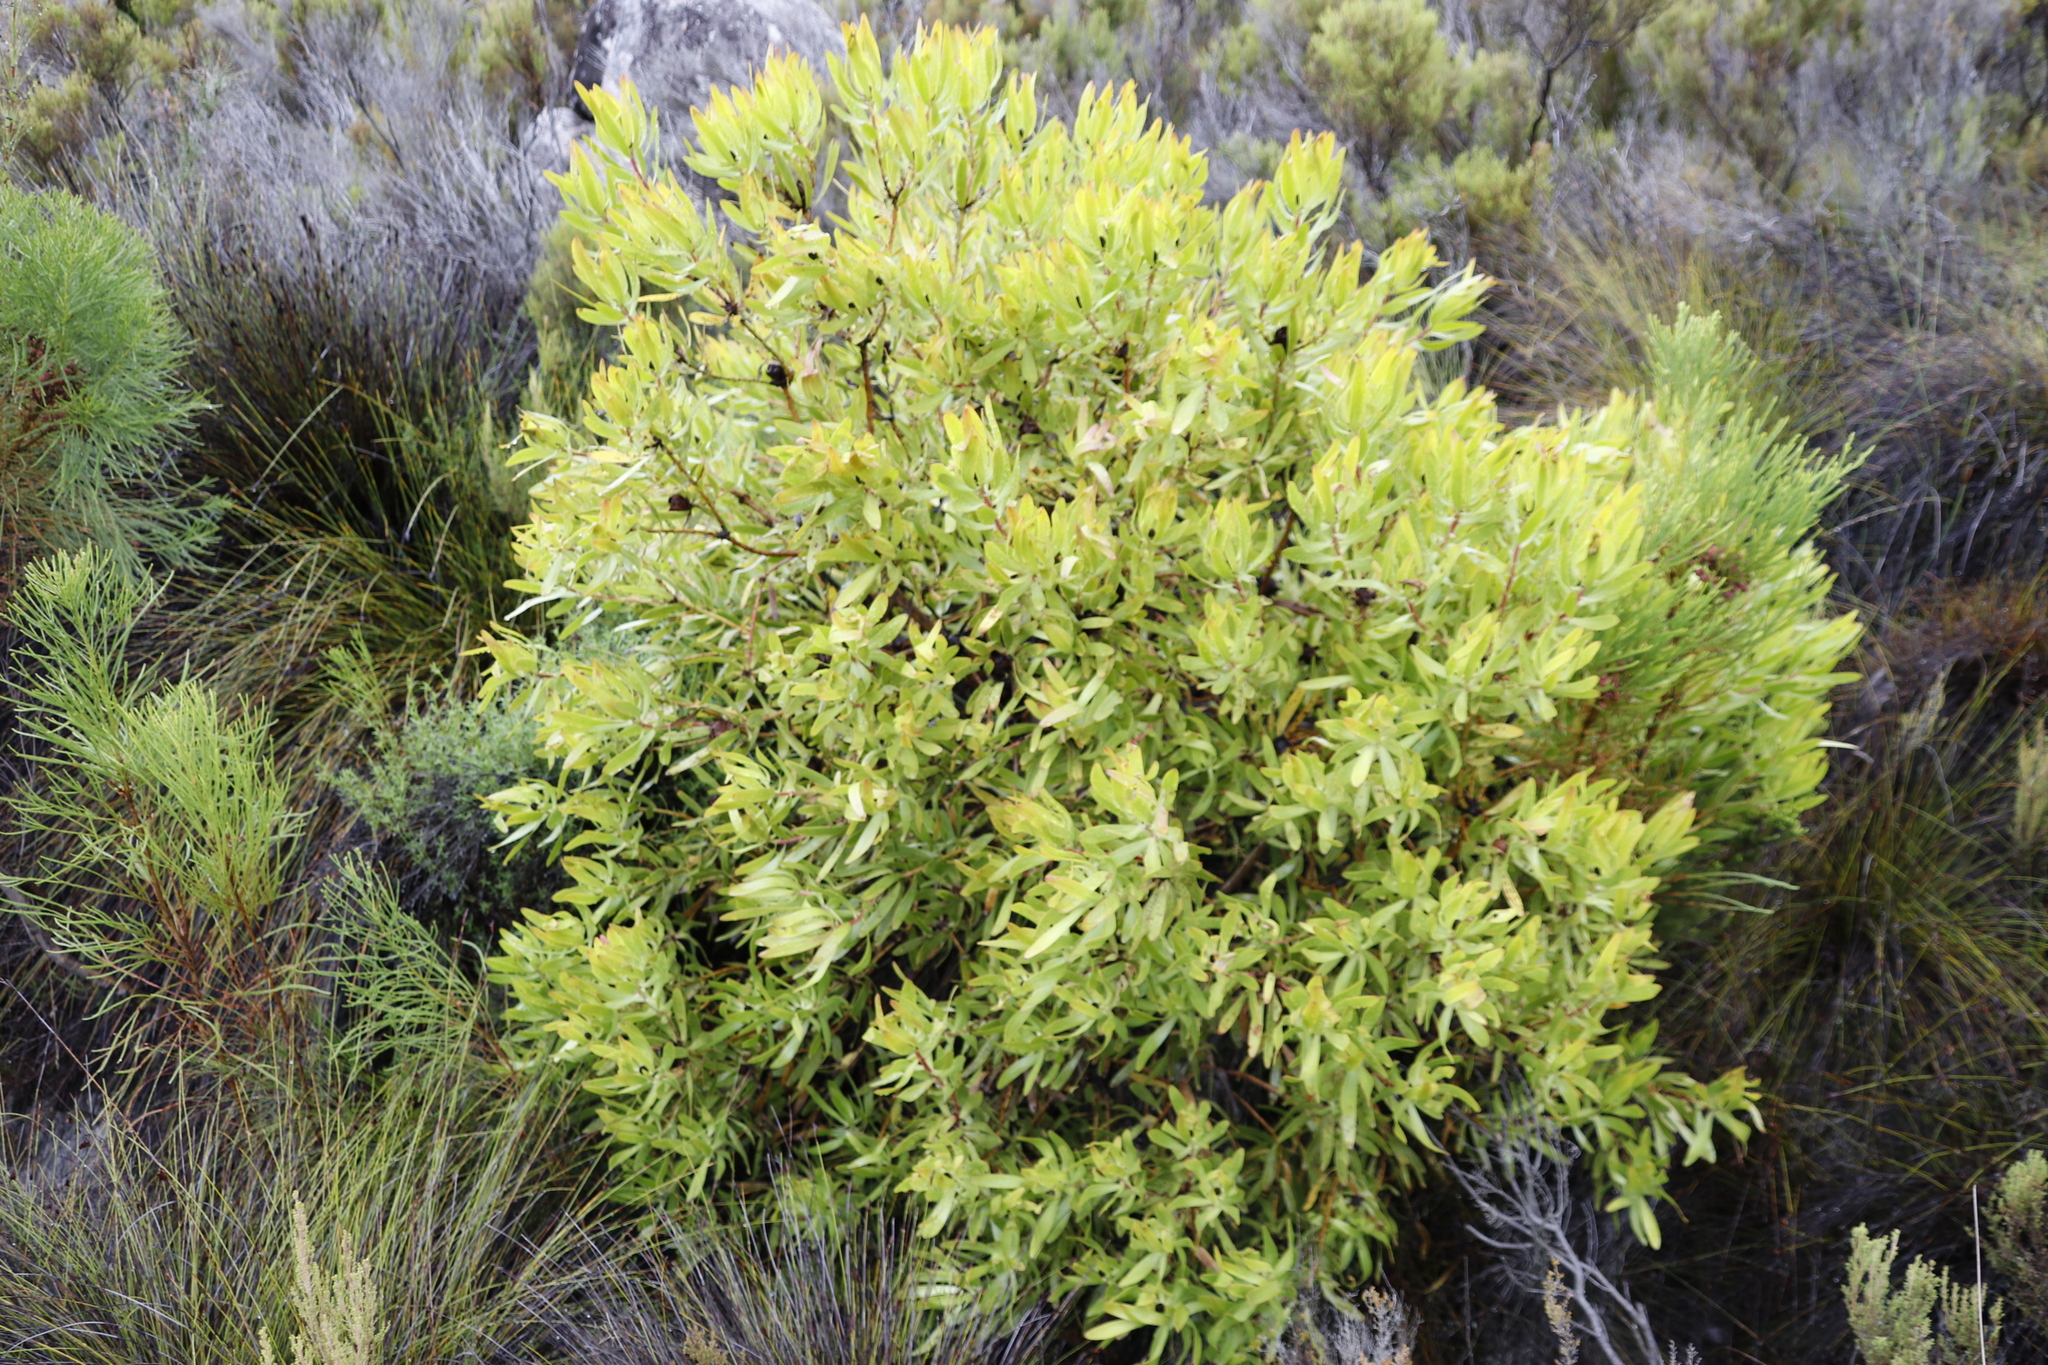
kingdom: Plantae
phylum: Tracheophyta
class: Magnoliopsida
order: Proteales
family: Proteaceae
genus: Leucadendron
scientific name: Leucadendron microcephalum
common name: Oilbract conebush
